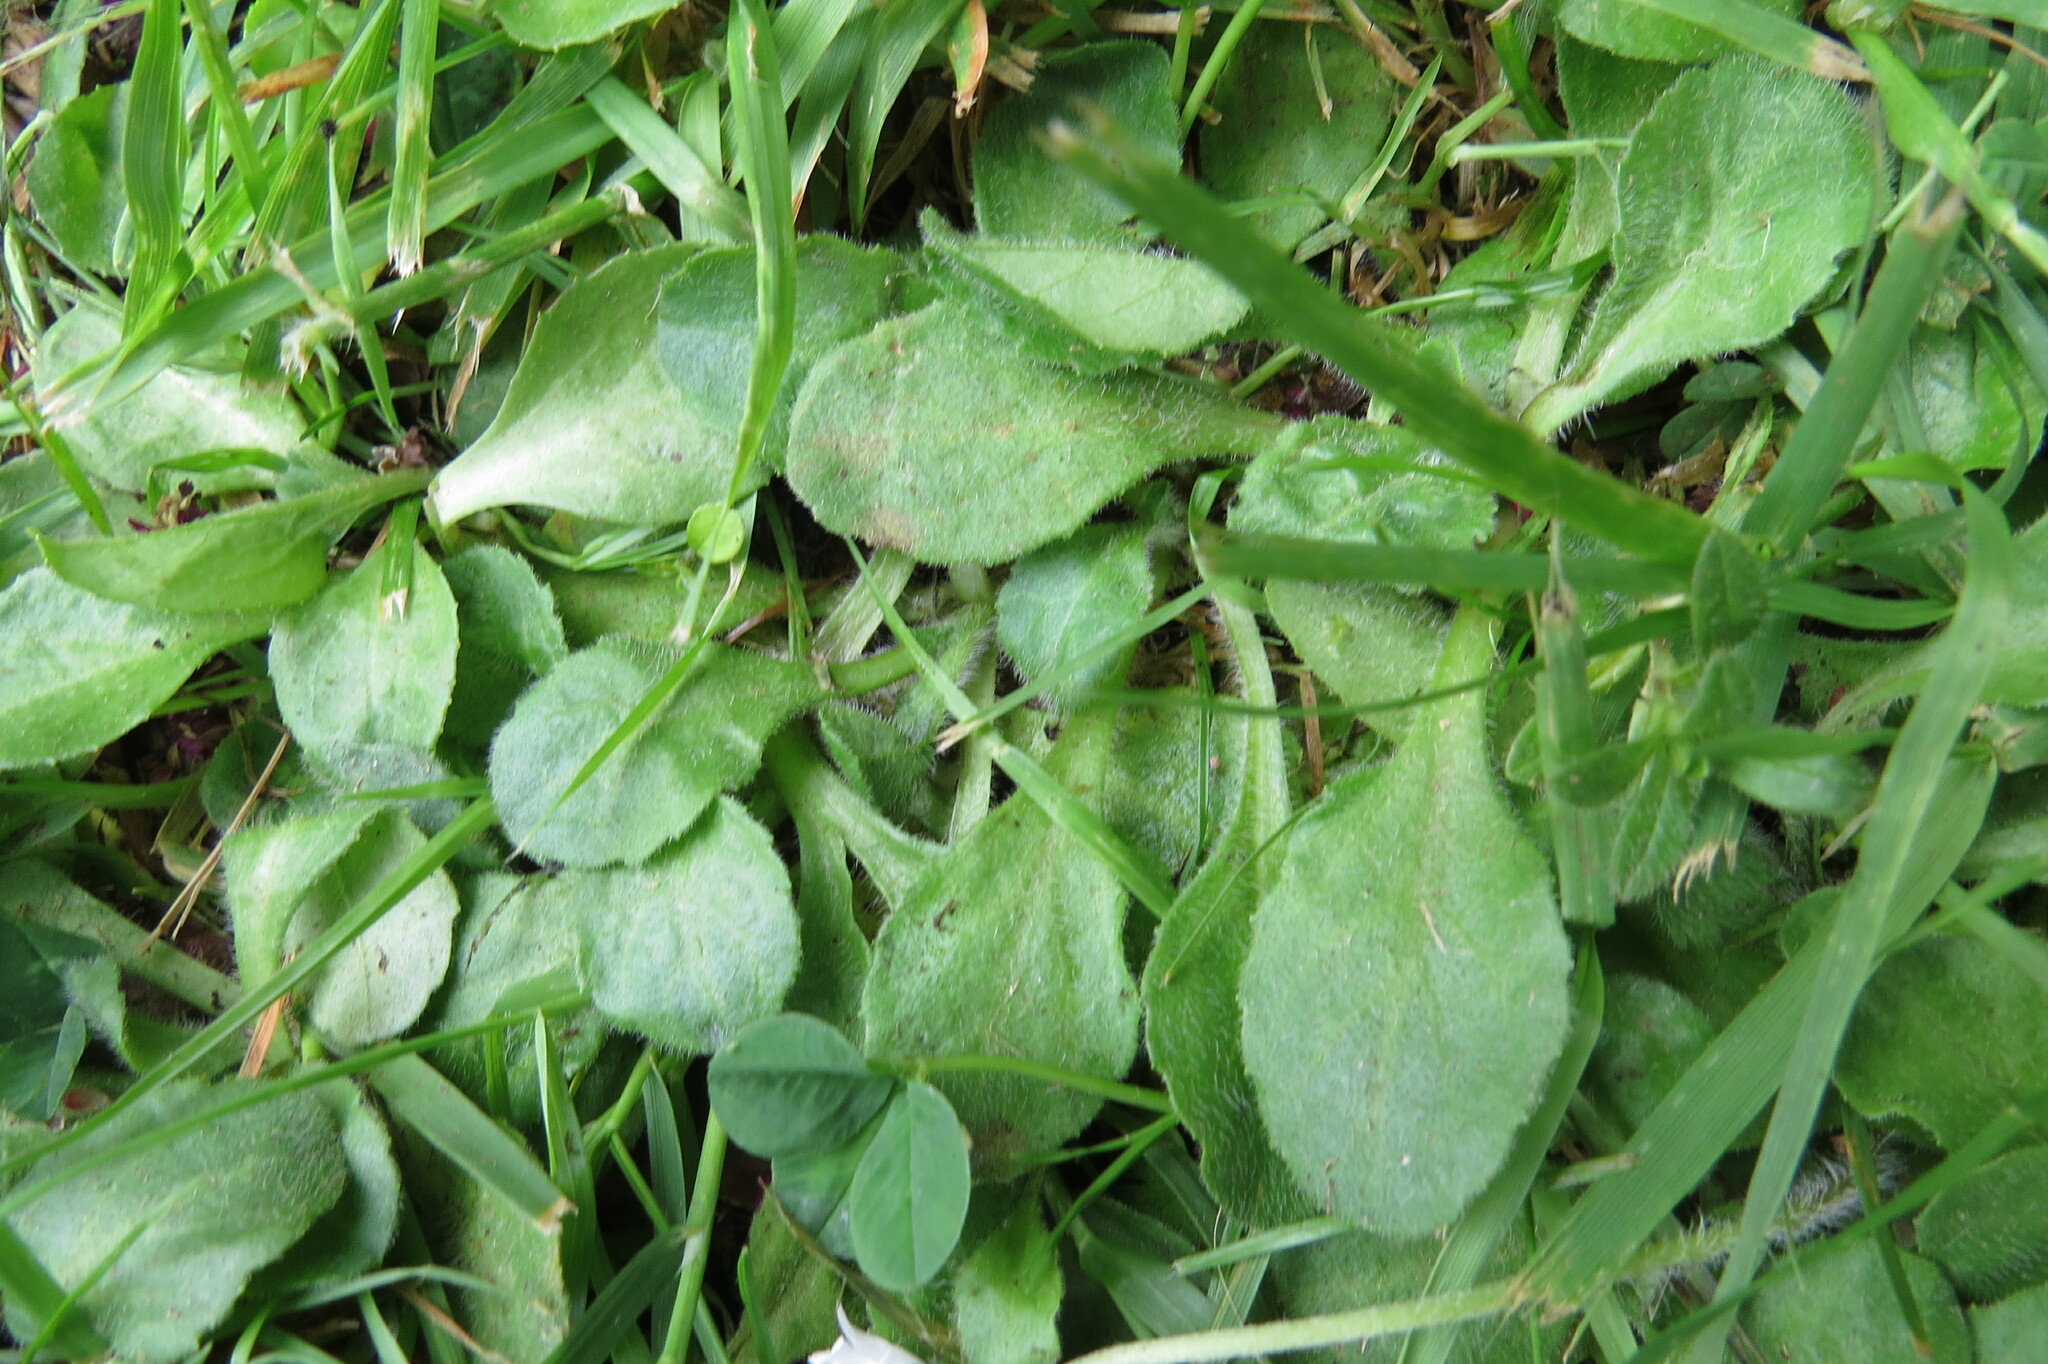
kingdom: Plantae
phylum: Tracheophyta
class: Magnoliopsida
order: Asterales
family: Asteraceae
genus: Bellis
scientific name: Bellis perennis
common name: Lawndaisy
